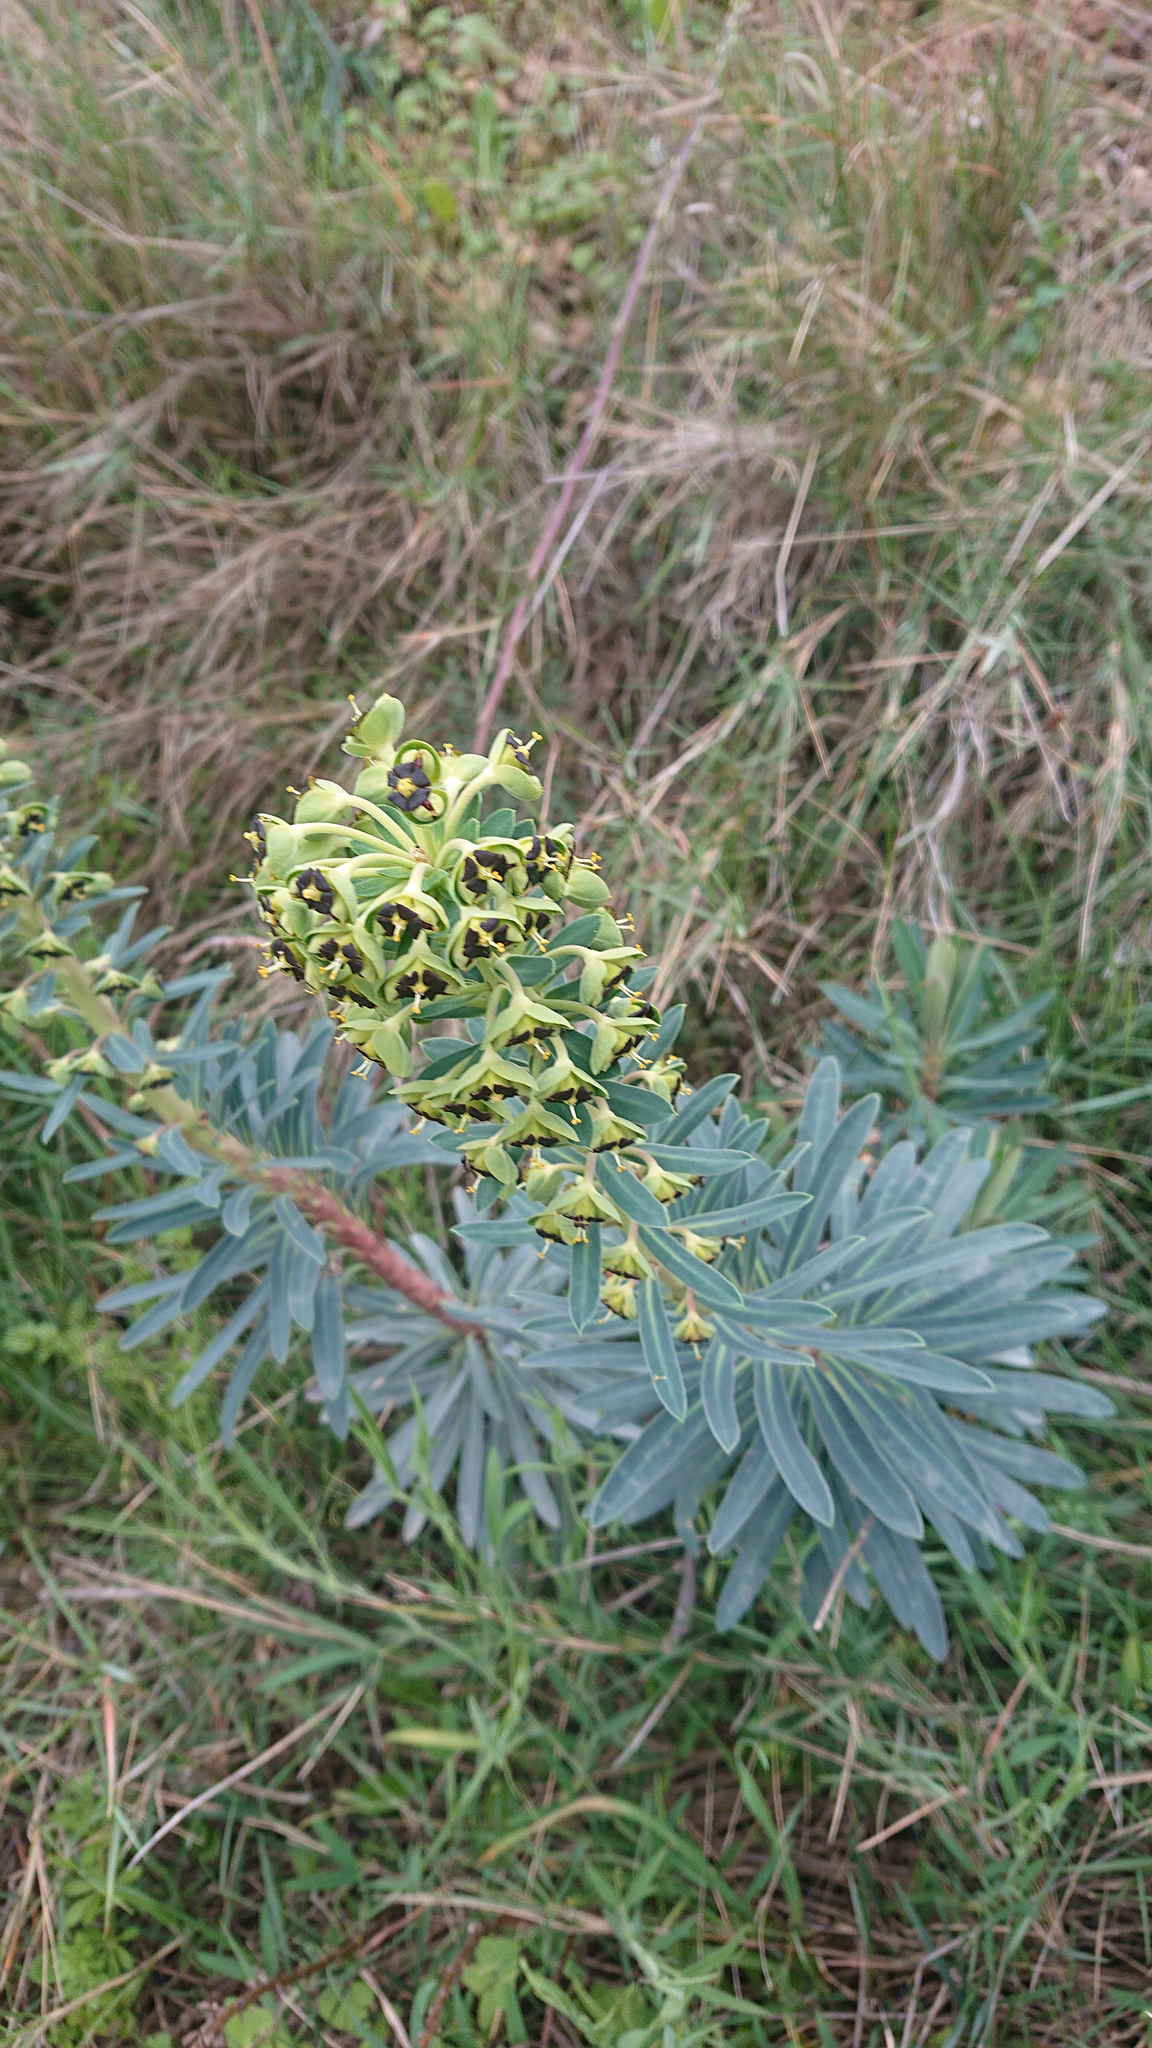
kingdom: Plantae
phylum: Tracheophyta
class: Magnoliopsida
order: Malpighiales
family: Euphorbiaceae
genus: Euphorbia
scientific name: Euphorbia characias
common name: Mediterranean spurge
